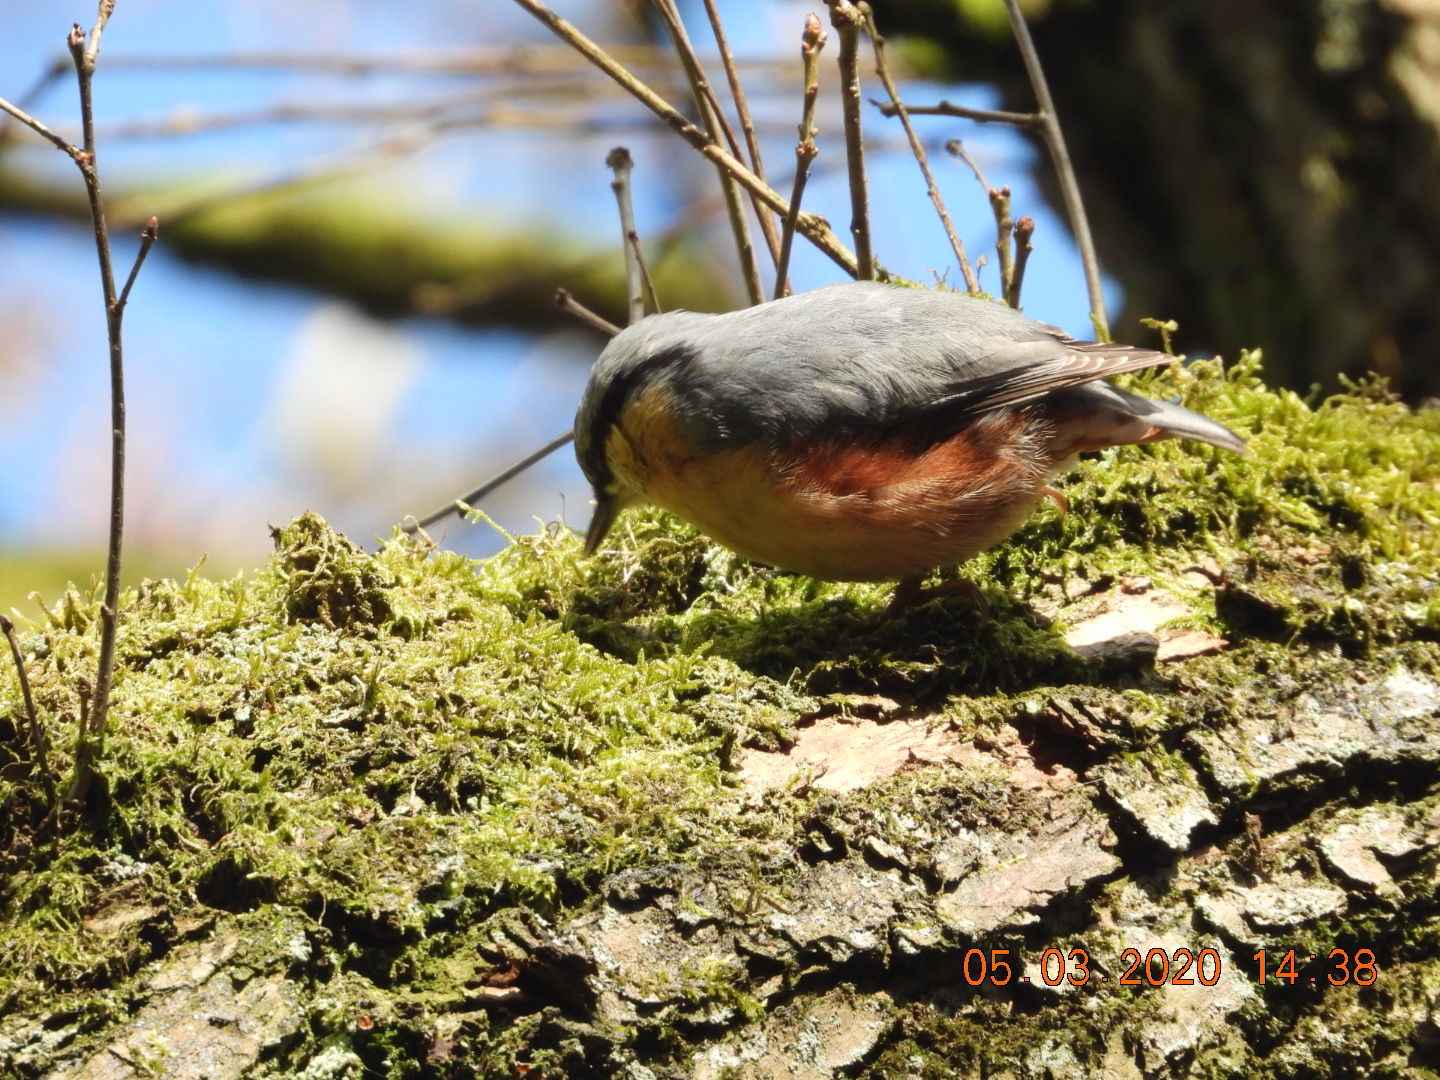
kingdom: Animalia
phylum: Chordata
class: Aves
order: Passeriformes
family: Sittidae
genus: Sitta
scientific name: Sitta europaea
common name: Eurasian nuthatch
